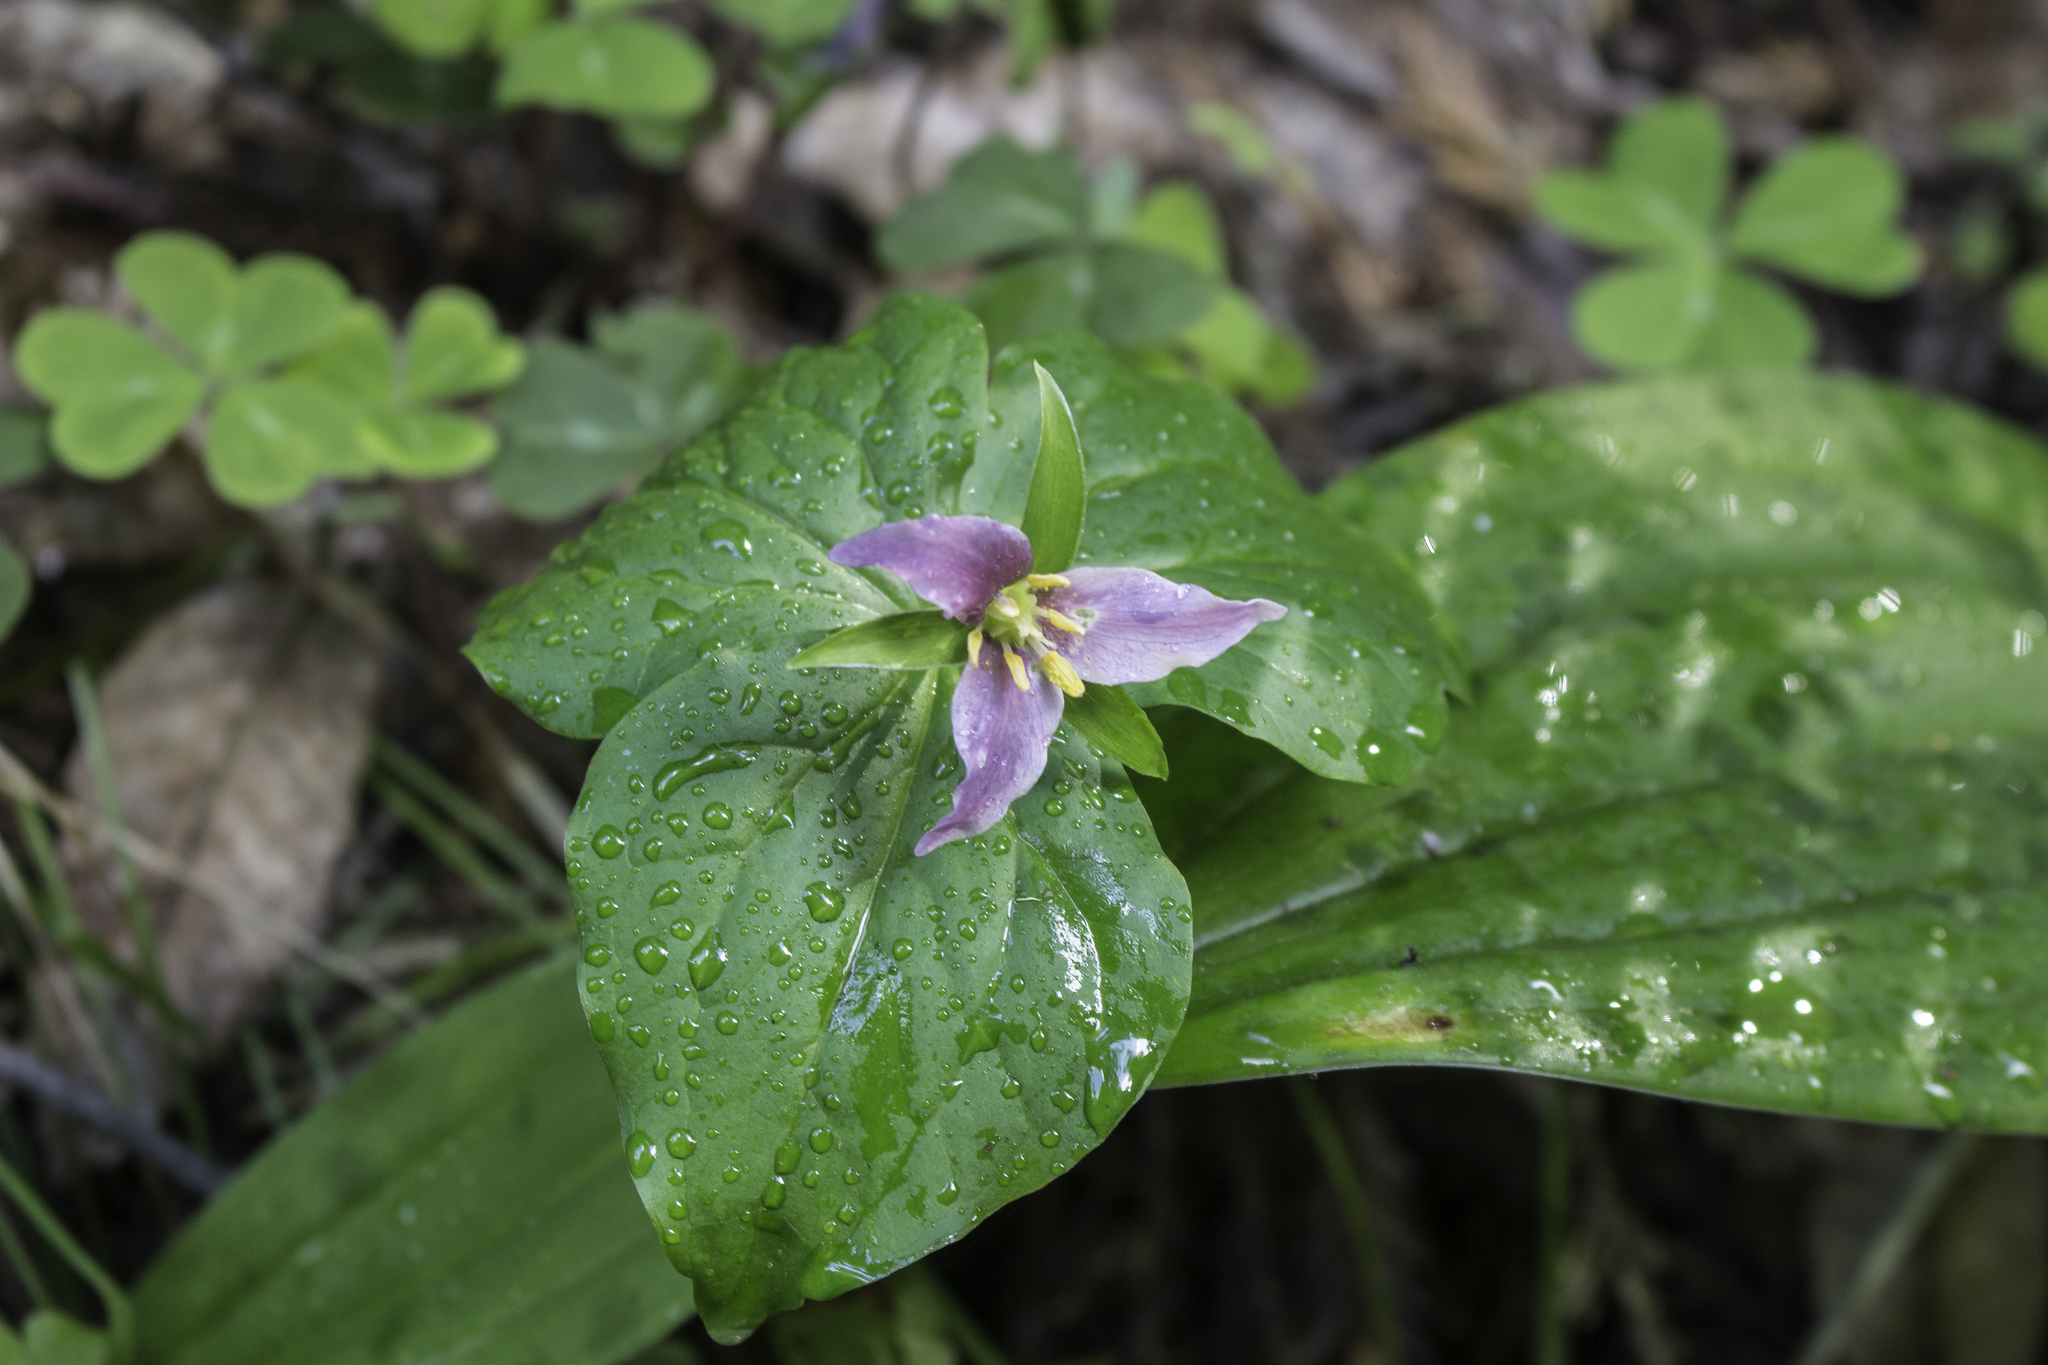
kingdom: Plantae
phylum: Tracheophyta
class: Liliopsida
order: Liliales
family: Melanthiaceae
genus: Trillium
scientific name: Trillium ovatum
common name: Pacific trillium
